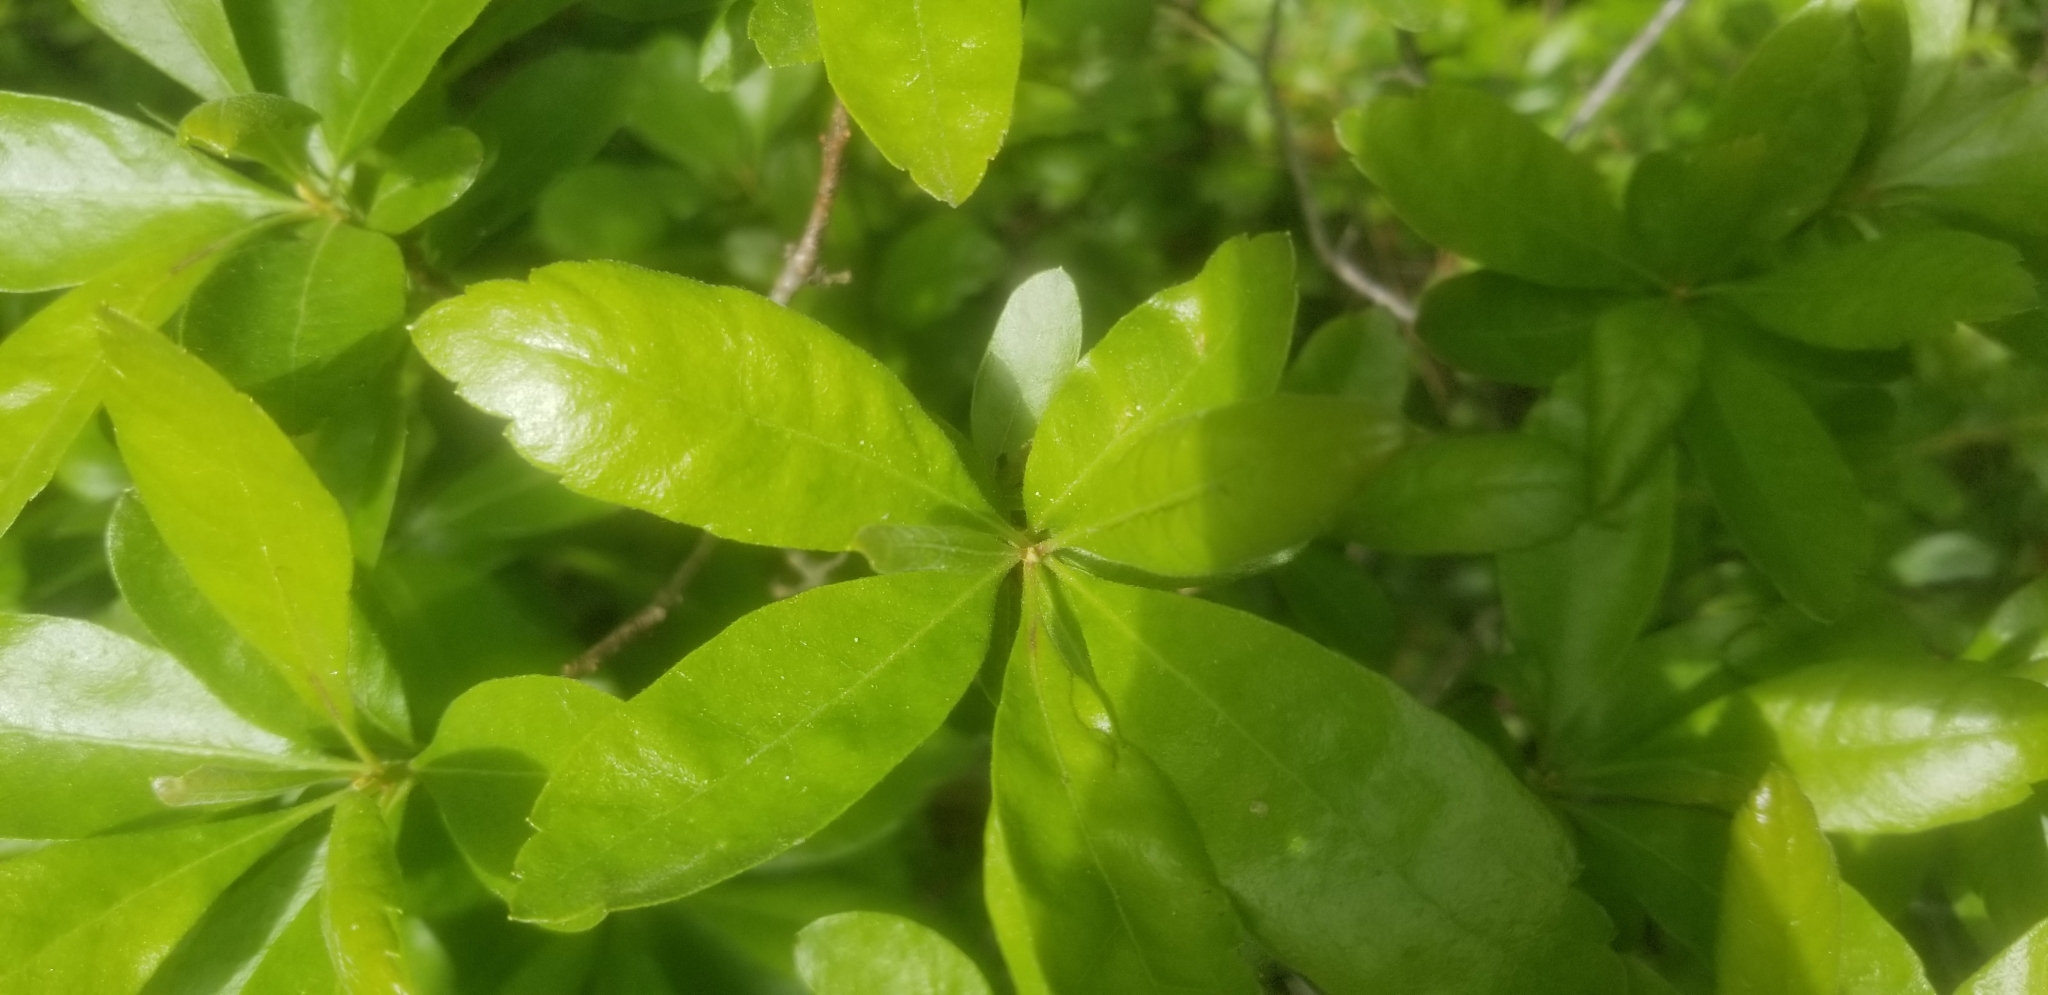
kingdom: Plantae
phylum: Tracheophyta
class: Magnoliopsida
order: Fagales
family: Myricaceae
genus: Morella
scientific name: Morella pensylvanica
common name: Northern bayberry
